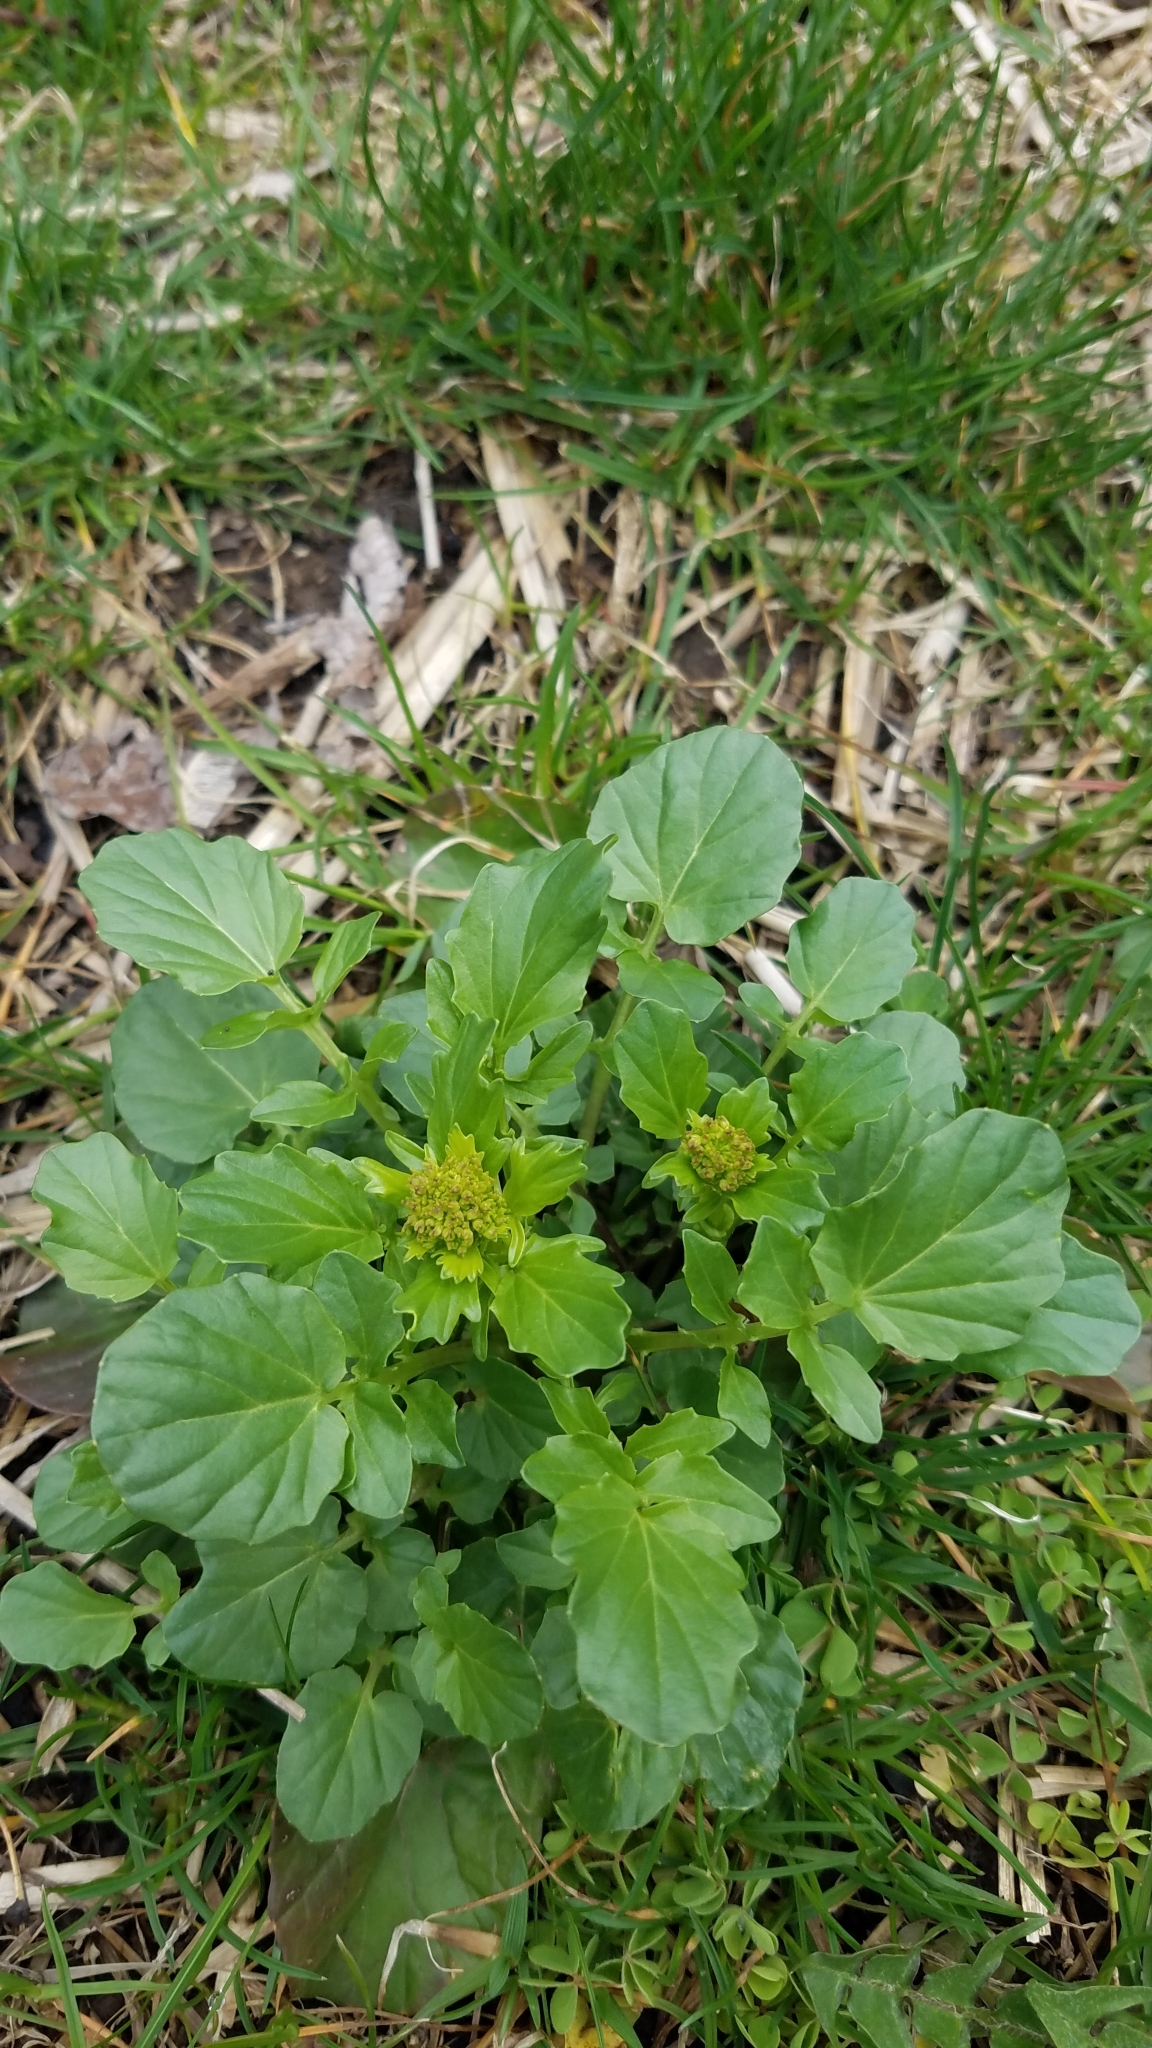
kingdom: Plantae
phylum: Tracheophyta
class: Magnoliopsida
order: Brassicales
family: Brassicaceae
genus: Barbarea
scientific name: Barbarea vulgaris
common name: Cressy-greens
